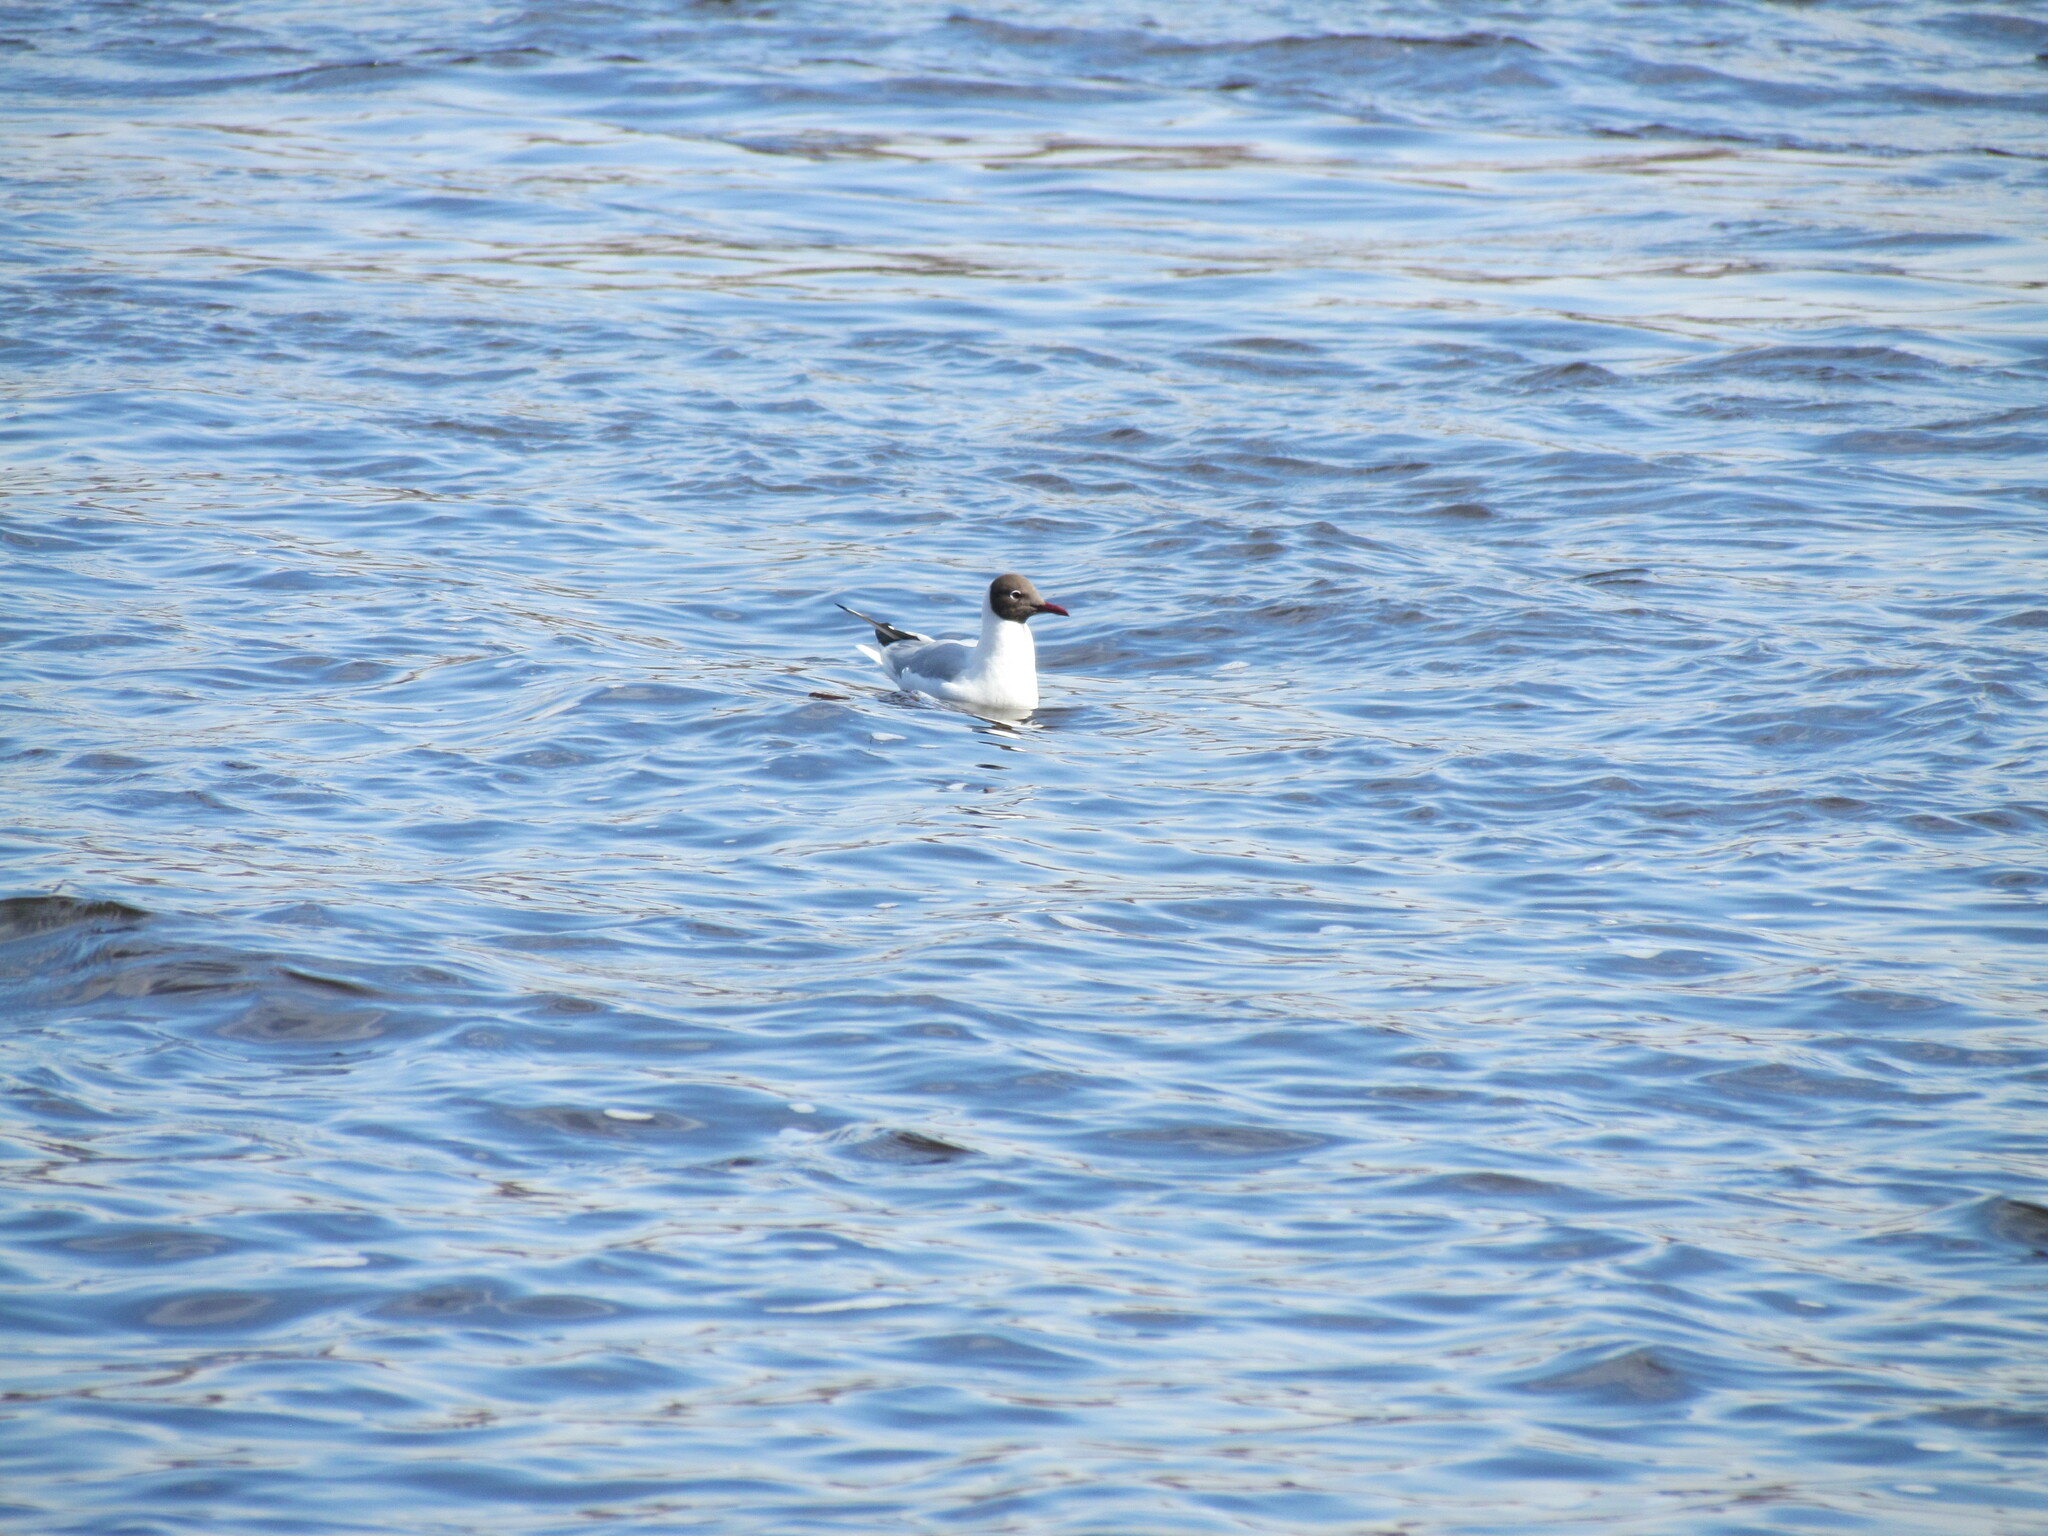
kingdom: Animalia
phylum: Chordata
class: Aves
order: Charadriiformes
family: Laridae
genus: Chroicocephalus
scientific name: Chroicocephalus ridibundus
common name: Black-headed gull
